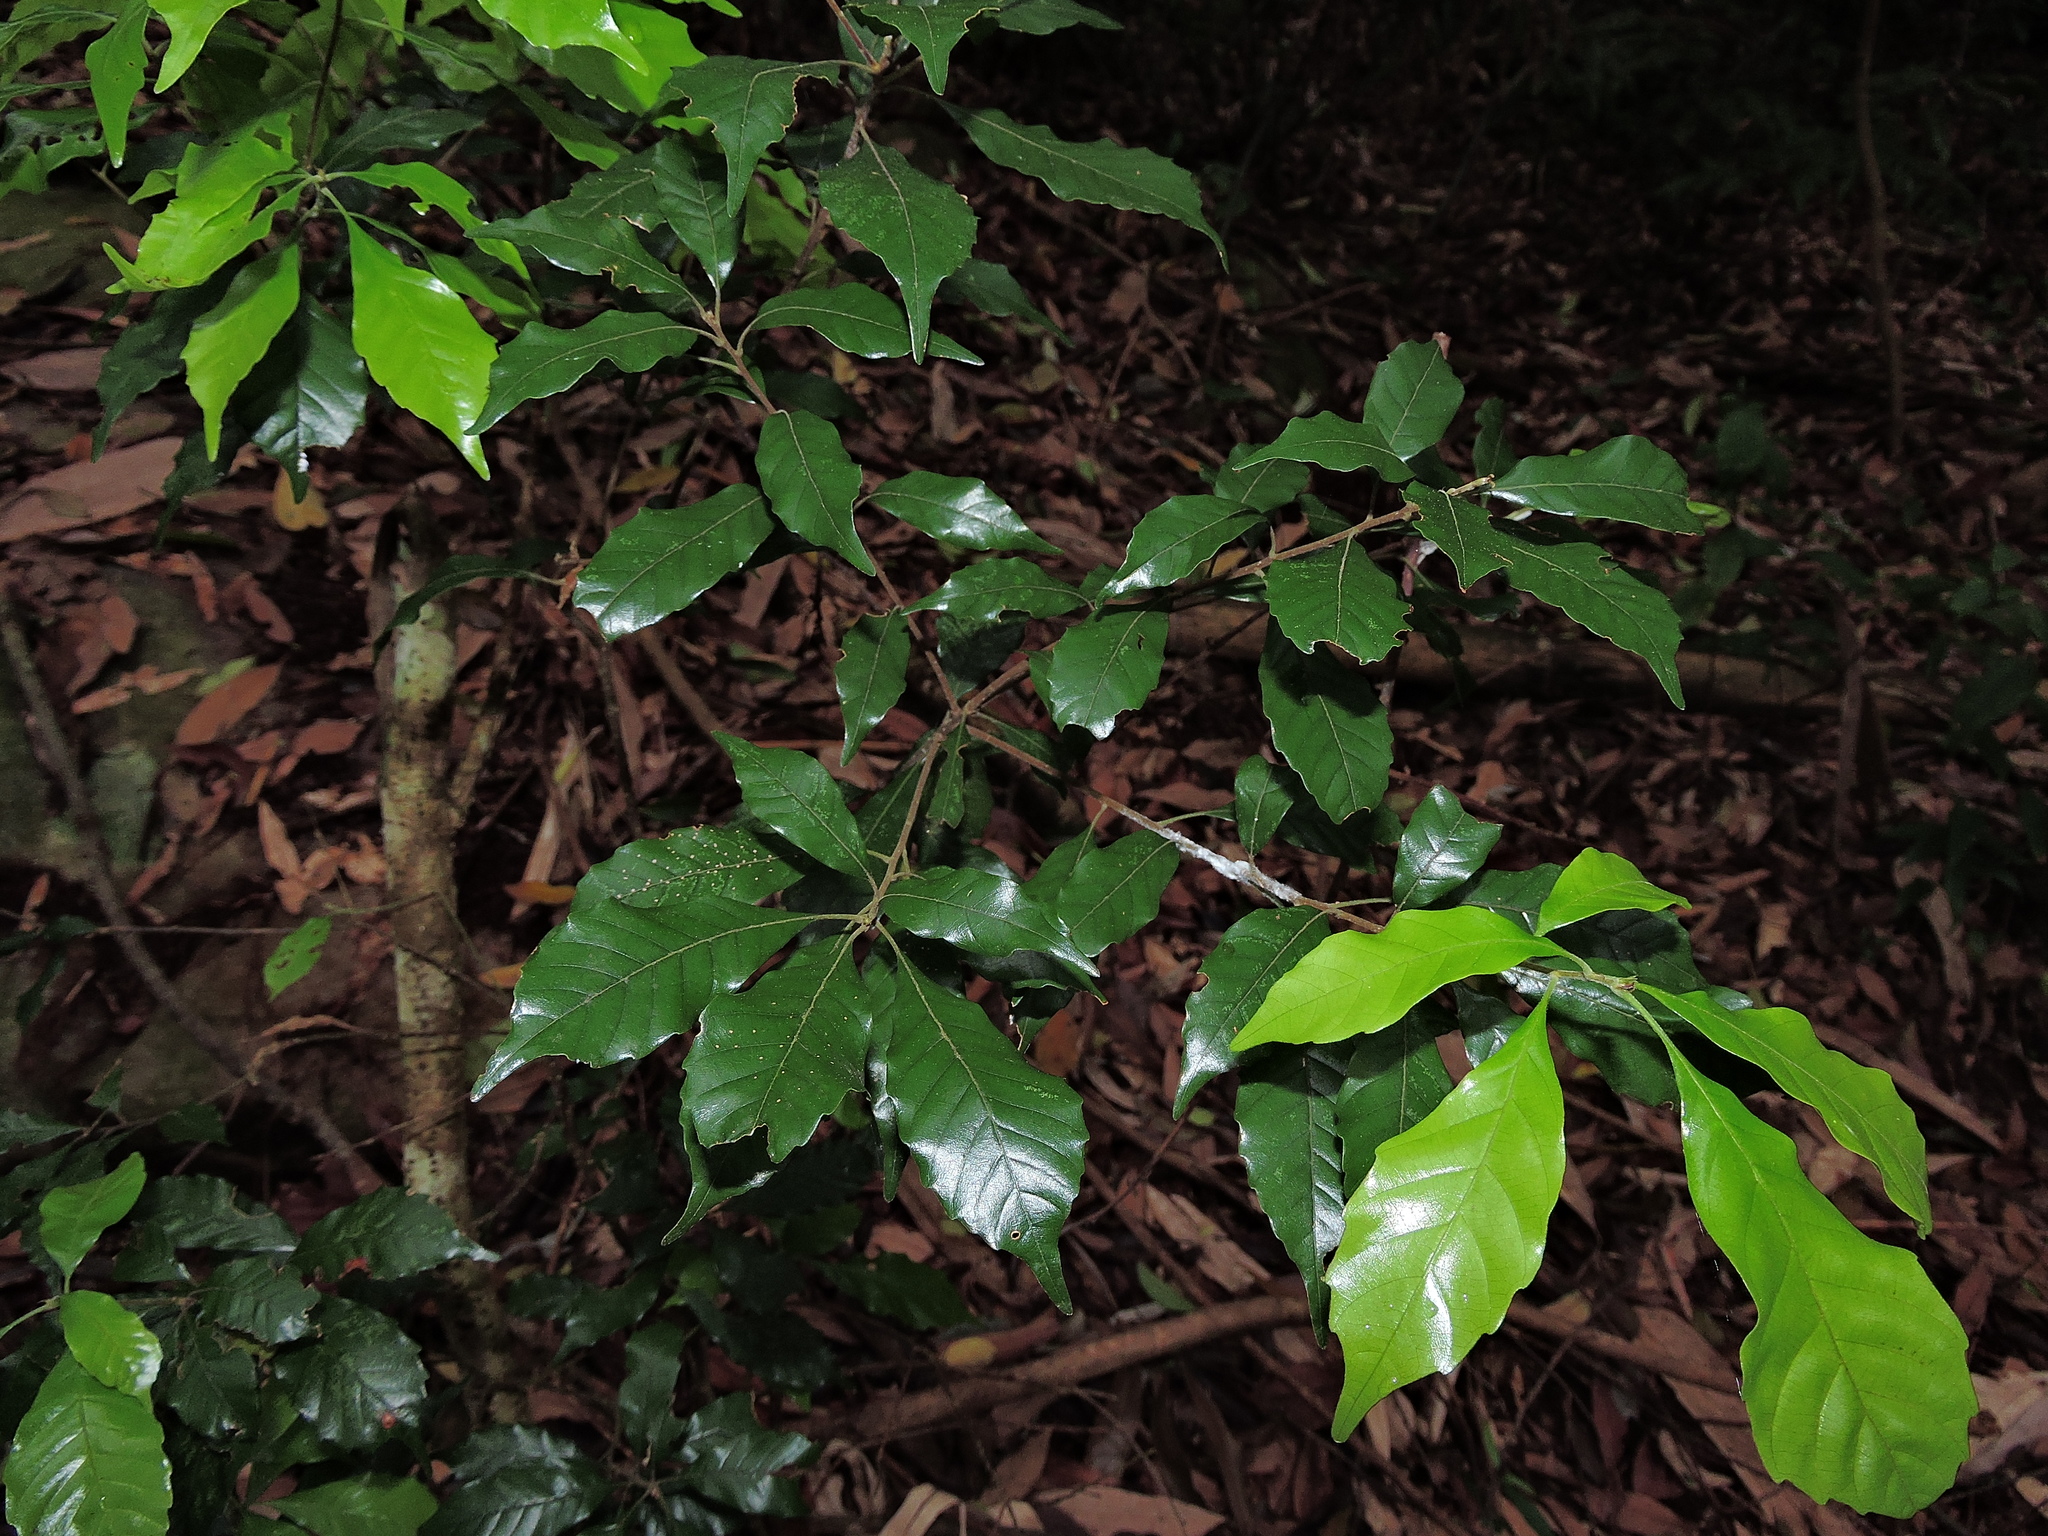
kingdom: Plantae
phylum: Tracheophyta
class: Magnoliopsida
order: Fagales
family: Fagaceae
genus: Lithocarpus
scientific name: Lithocarpus konishii
